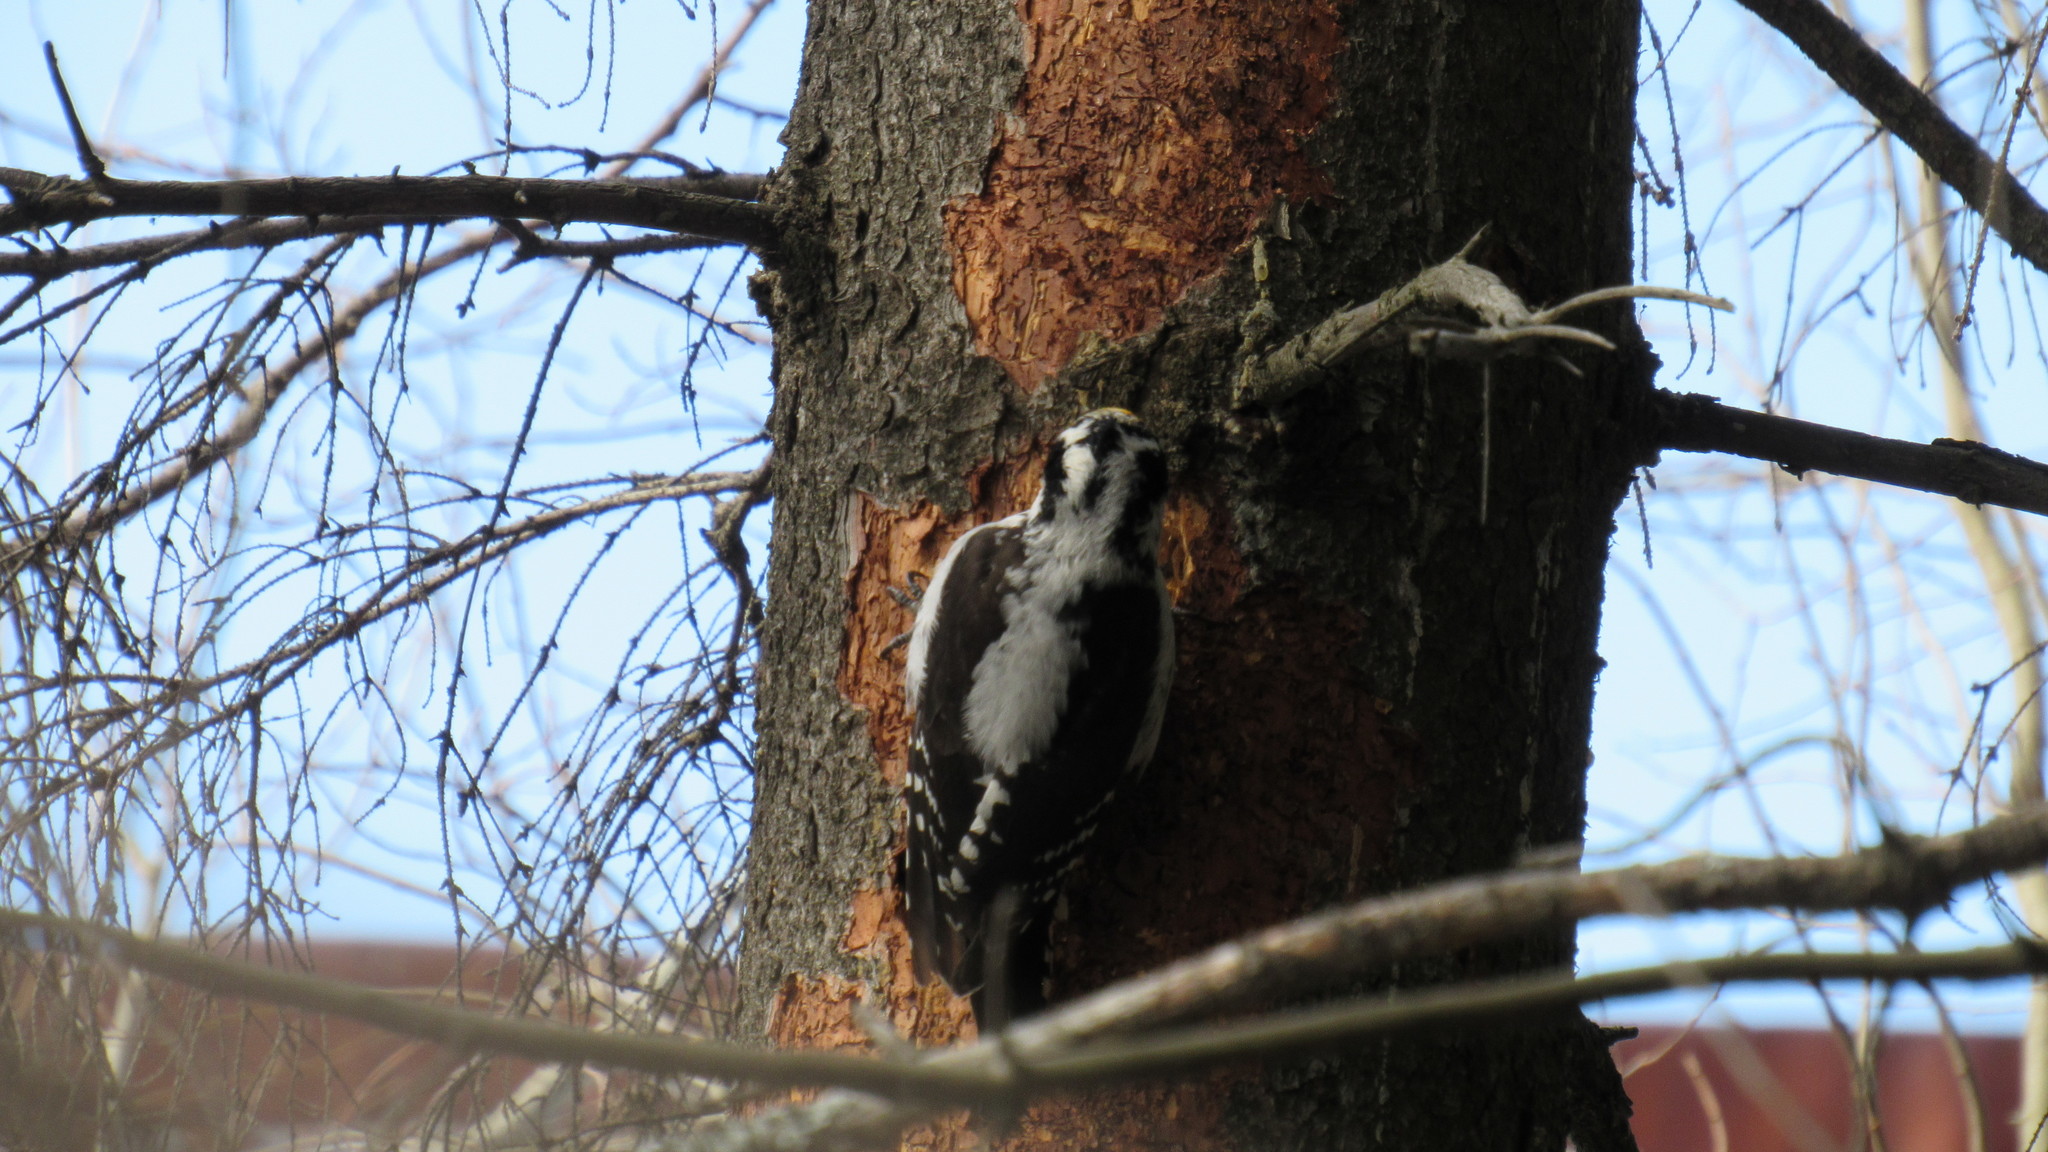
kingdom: Animalia
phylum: Chordata
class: Aves
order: Piciformes
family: Picidae
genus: Picoides
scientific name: Picoides tridactylus
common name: Eurasian three-toed woodpecker
